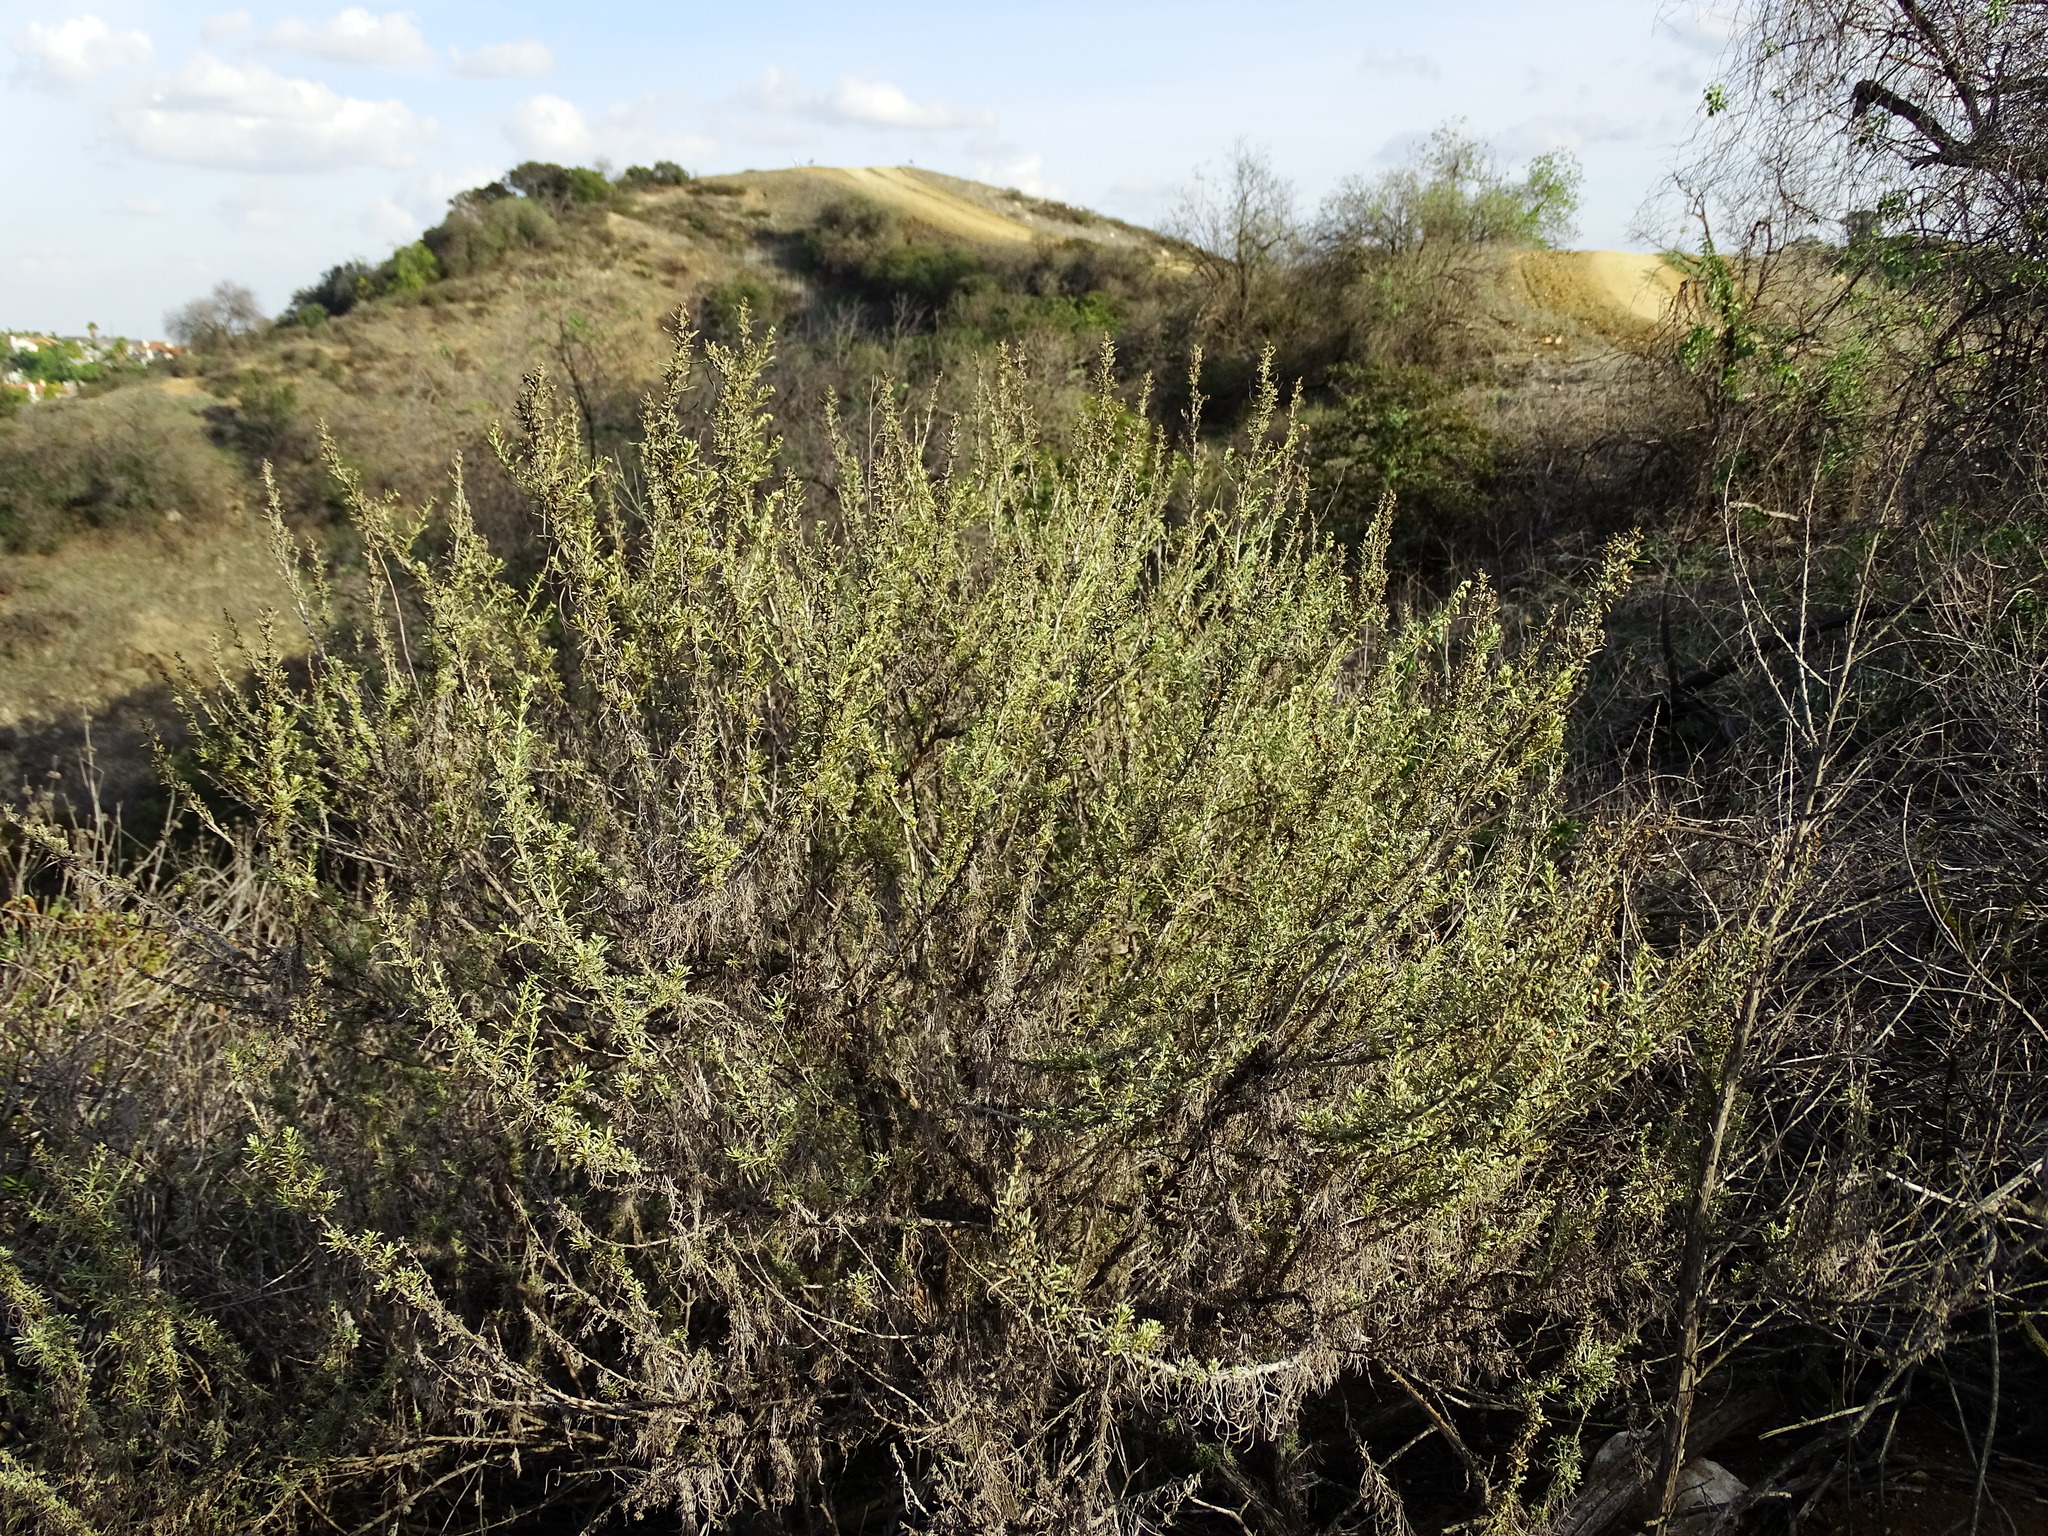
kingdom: Plantae
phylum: Tracheophyta
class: Magnoliopsida
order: Asterales
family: Asteraceae
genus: Artemisia
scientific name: Artemisia californica
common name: California sagebrush
